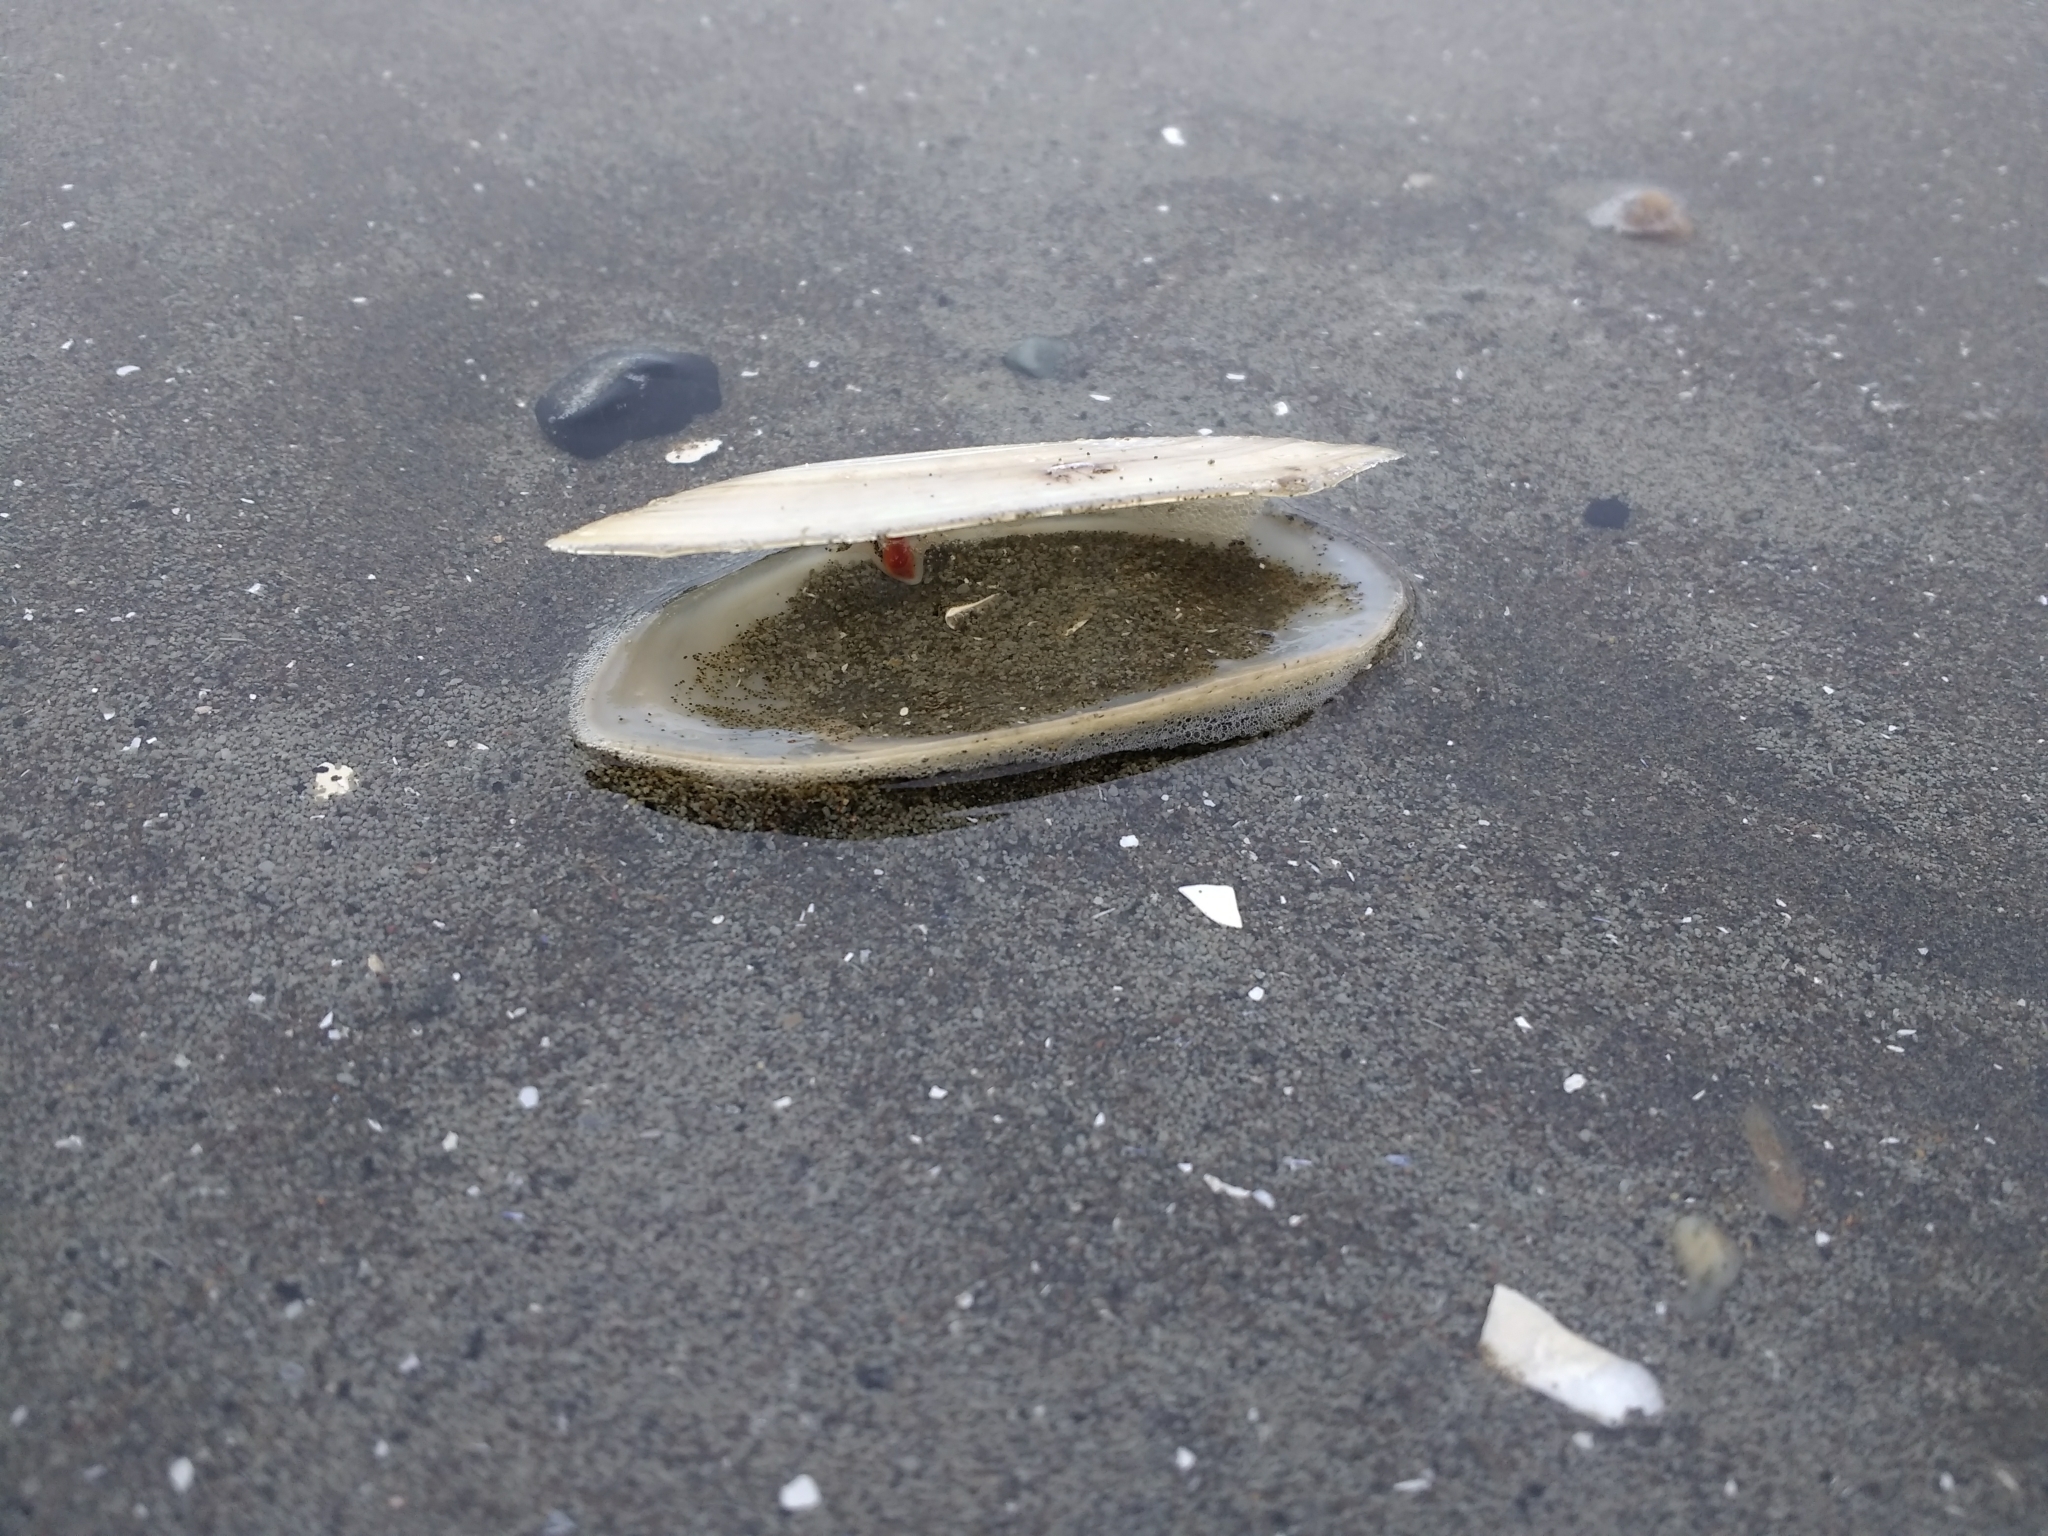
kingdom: Animalia
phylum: Mollusca
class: Bivalvia
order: Venerida
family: Mactridae
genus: Darina
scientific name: Darina solenoides
